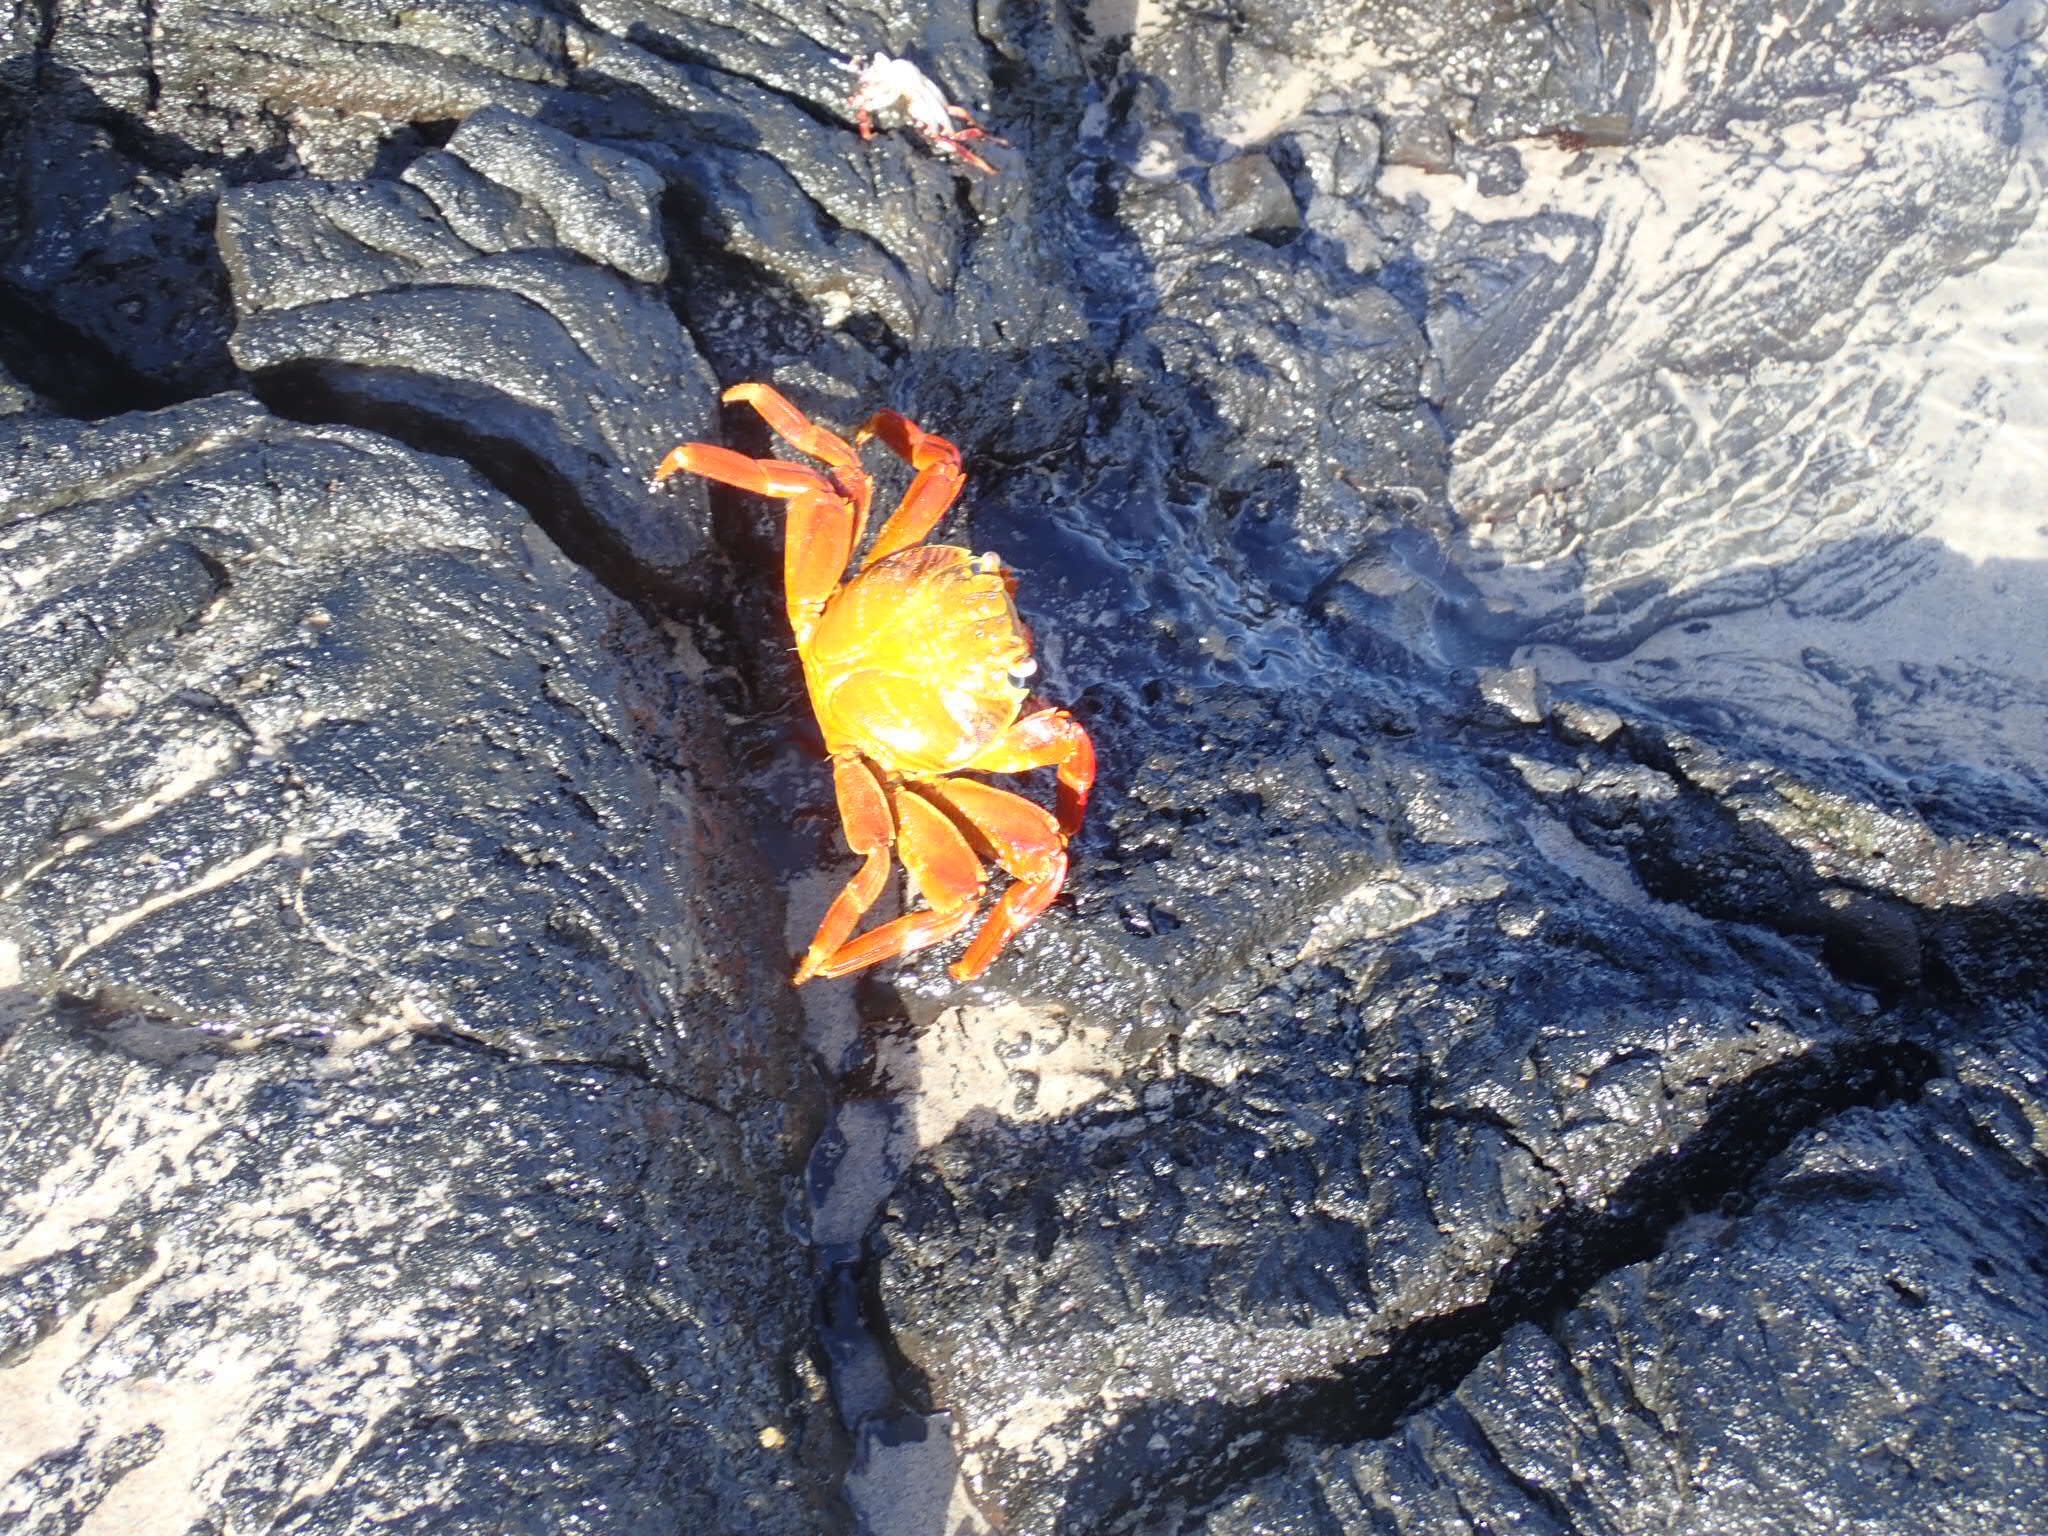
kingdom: Animalia
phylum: Arthropoda
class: Malacostraca
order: Decapoda
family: Grapsidae
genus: Grapsus
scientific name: Grapsus grapsus
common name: Sally lightfoot
